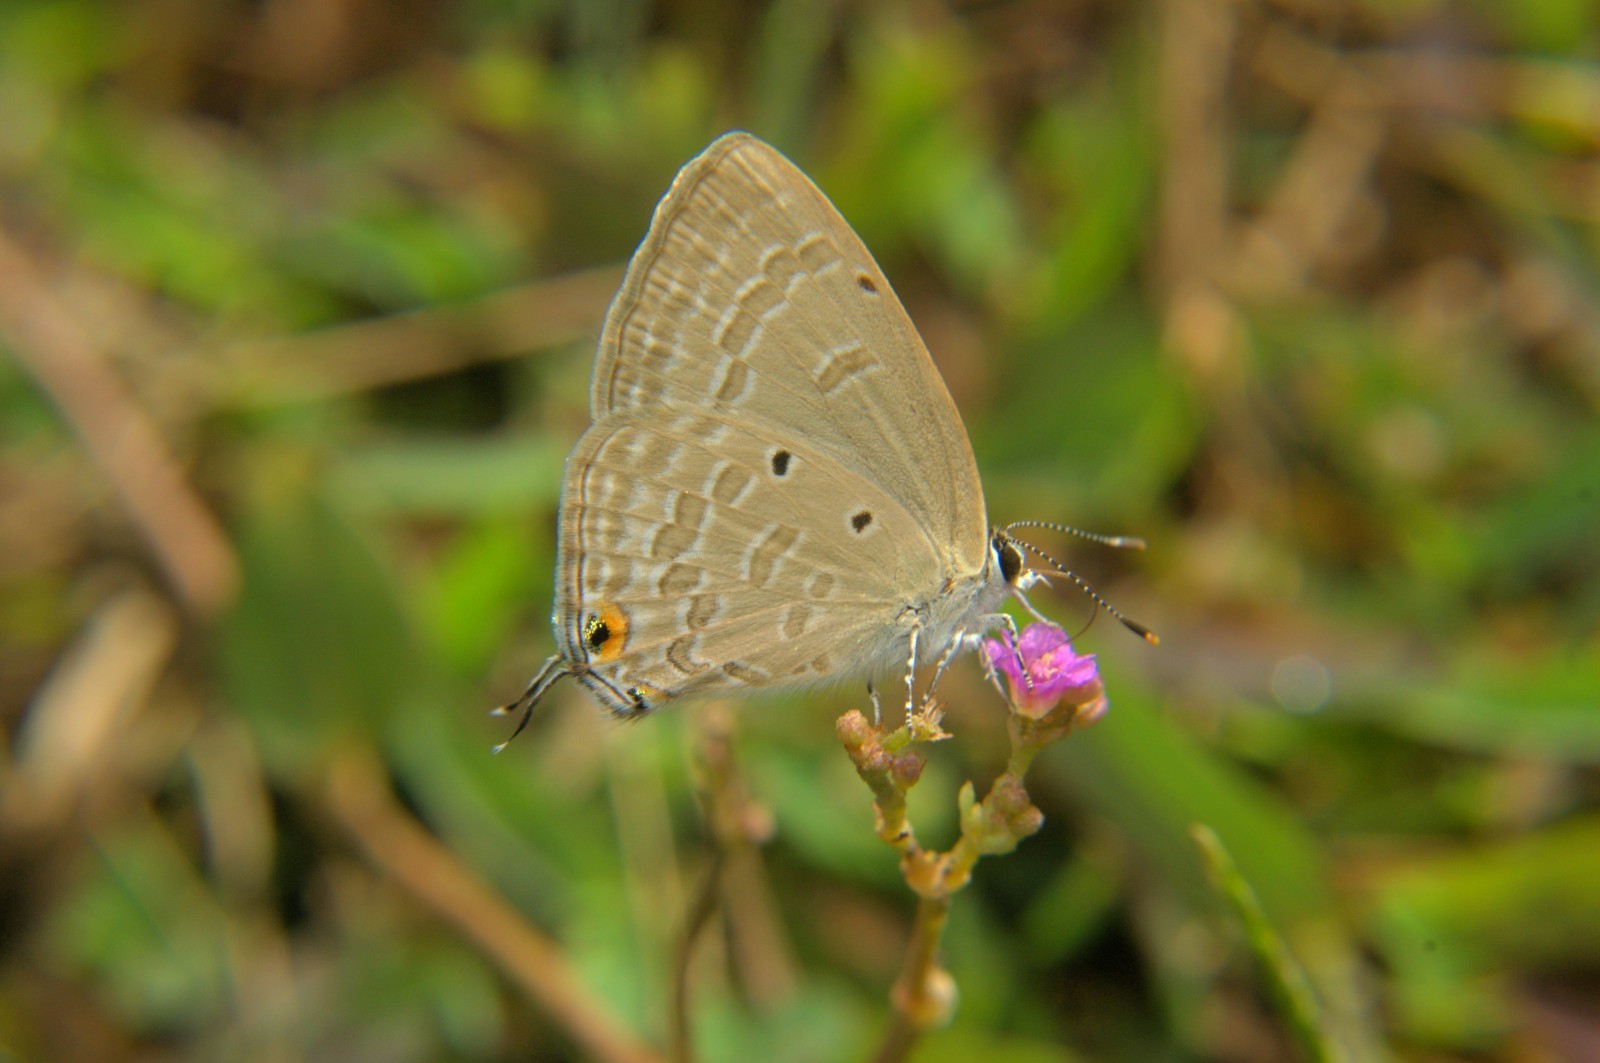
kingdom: Animalia
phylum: Arthropoda
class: Insecta
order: Lepidoptera
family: Lycaenidae
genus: Catochrysops
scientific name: Catochrysops strabo
